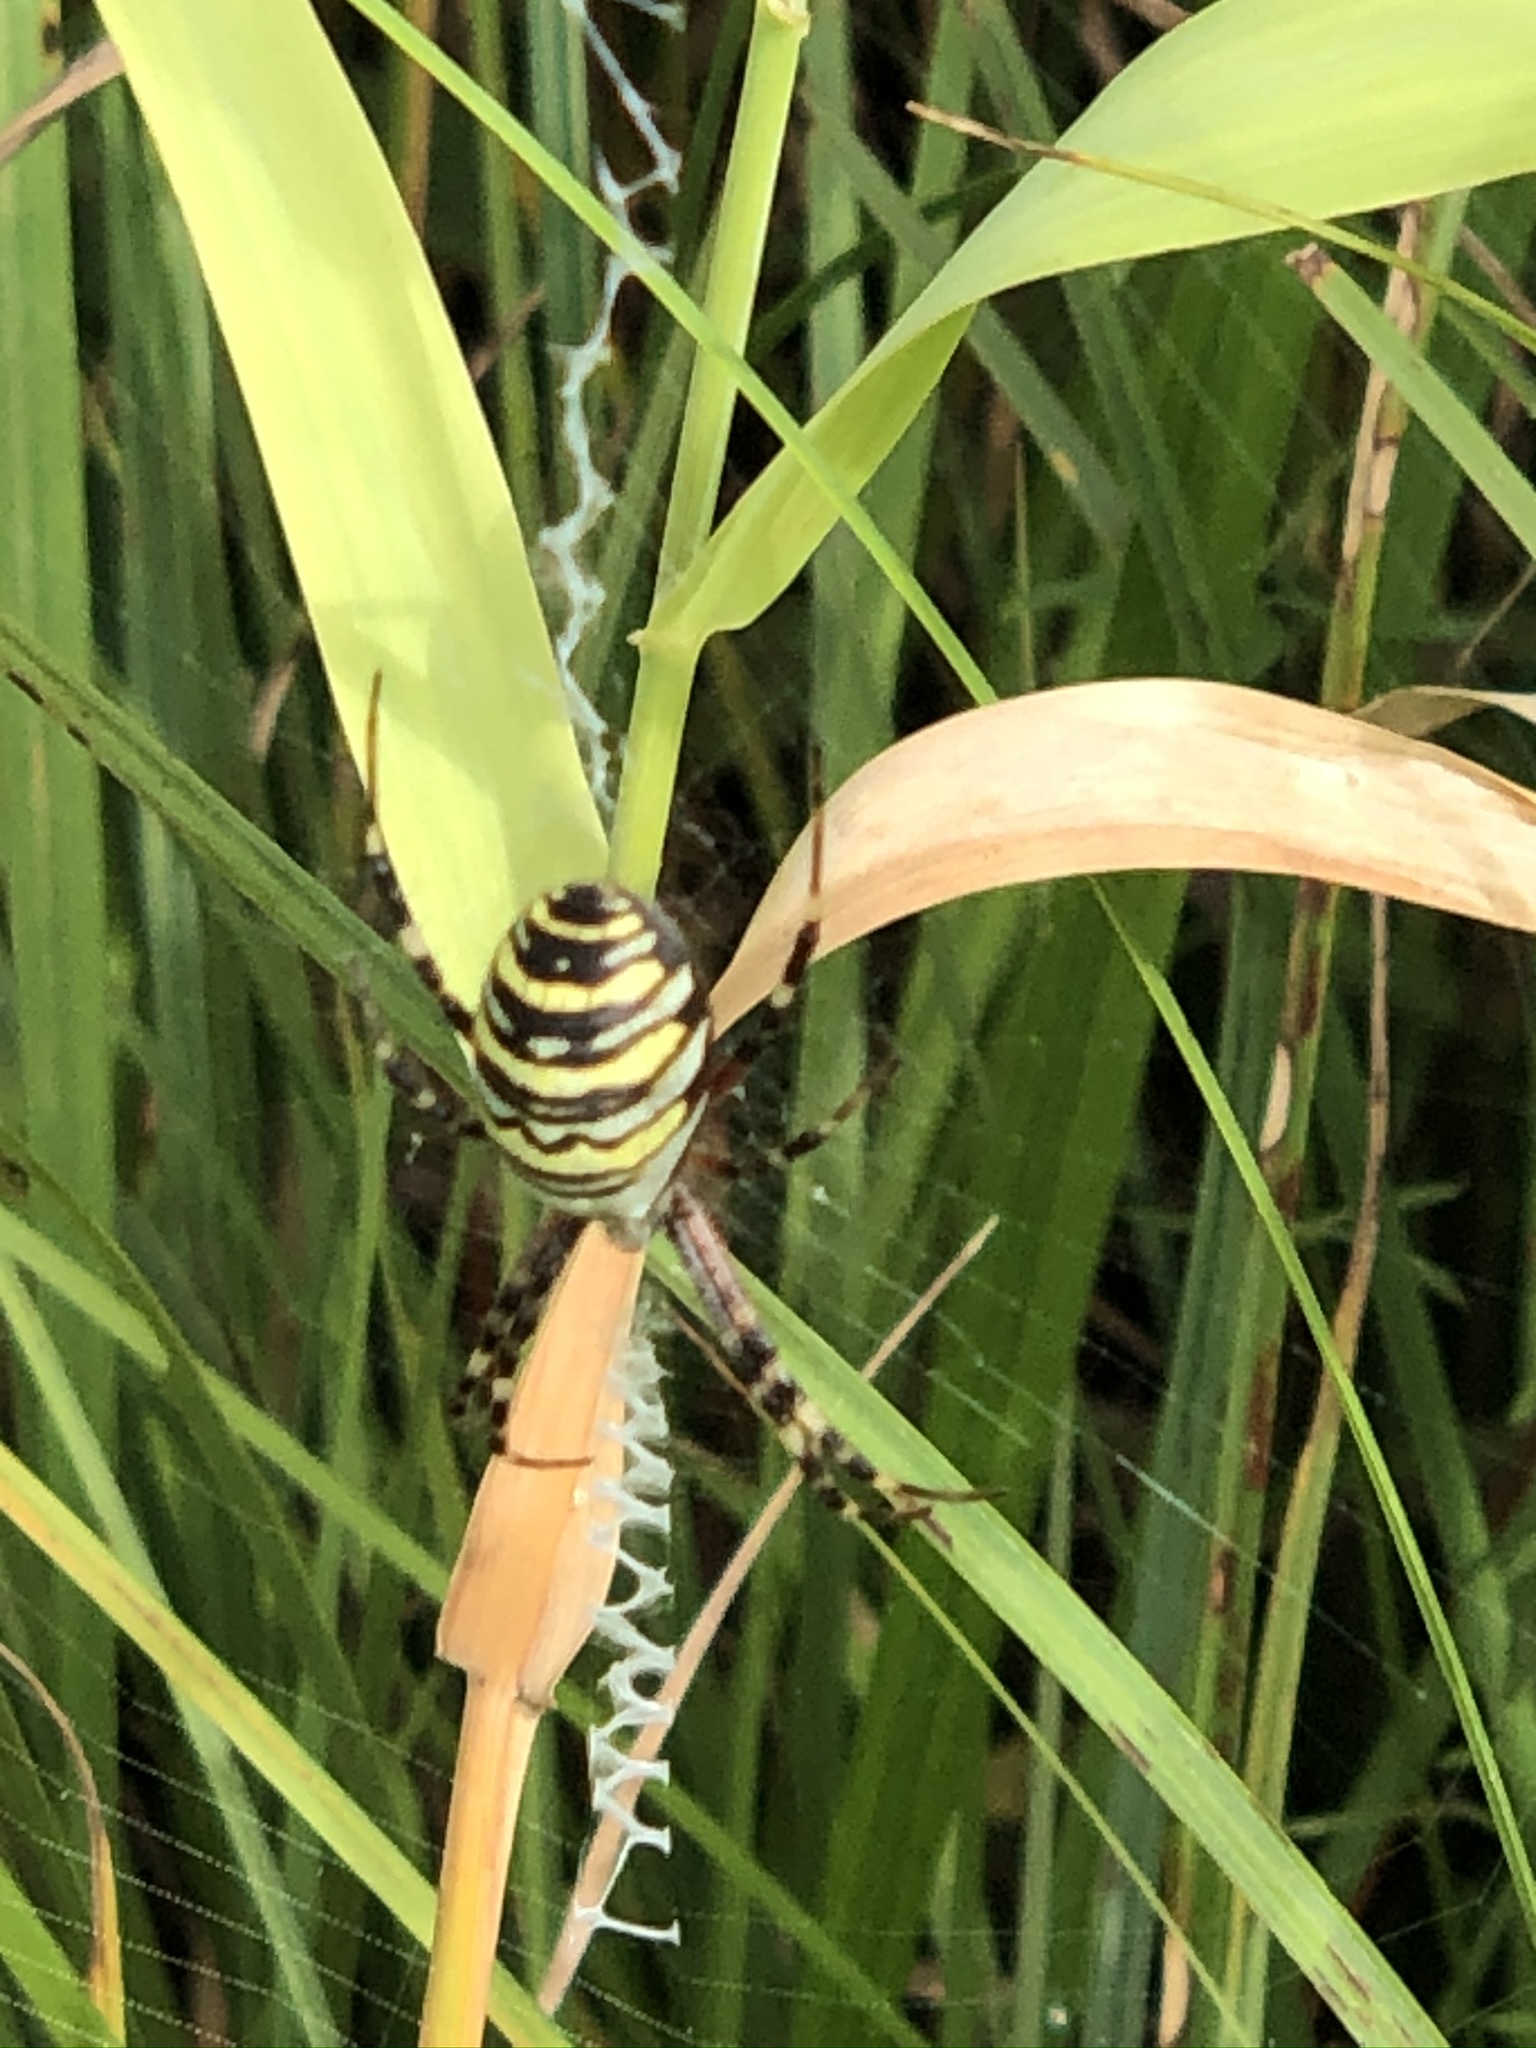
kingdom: Animalia
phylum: Arthropoda
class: Arachnida
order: Araneae
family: Araneidae
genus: Argiope
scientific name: Argiope bruennichi
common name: Wasp spider
